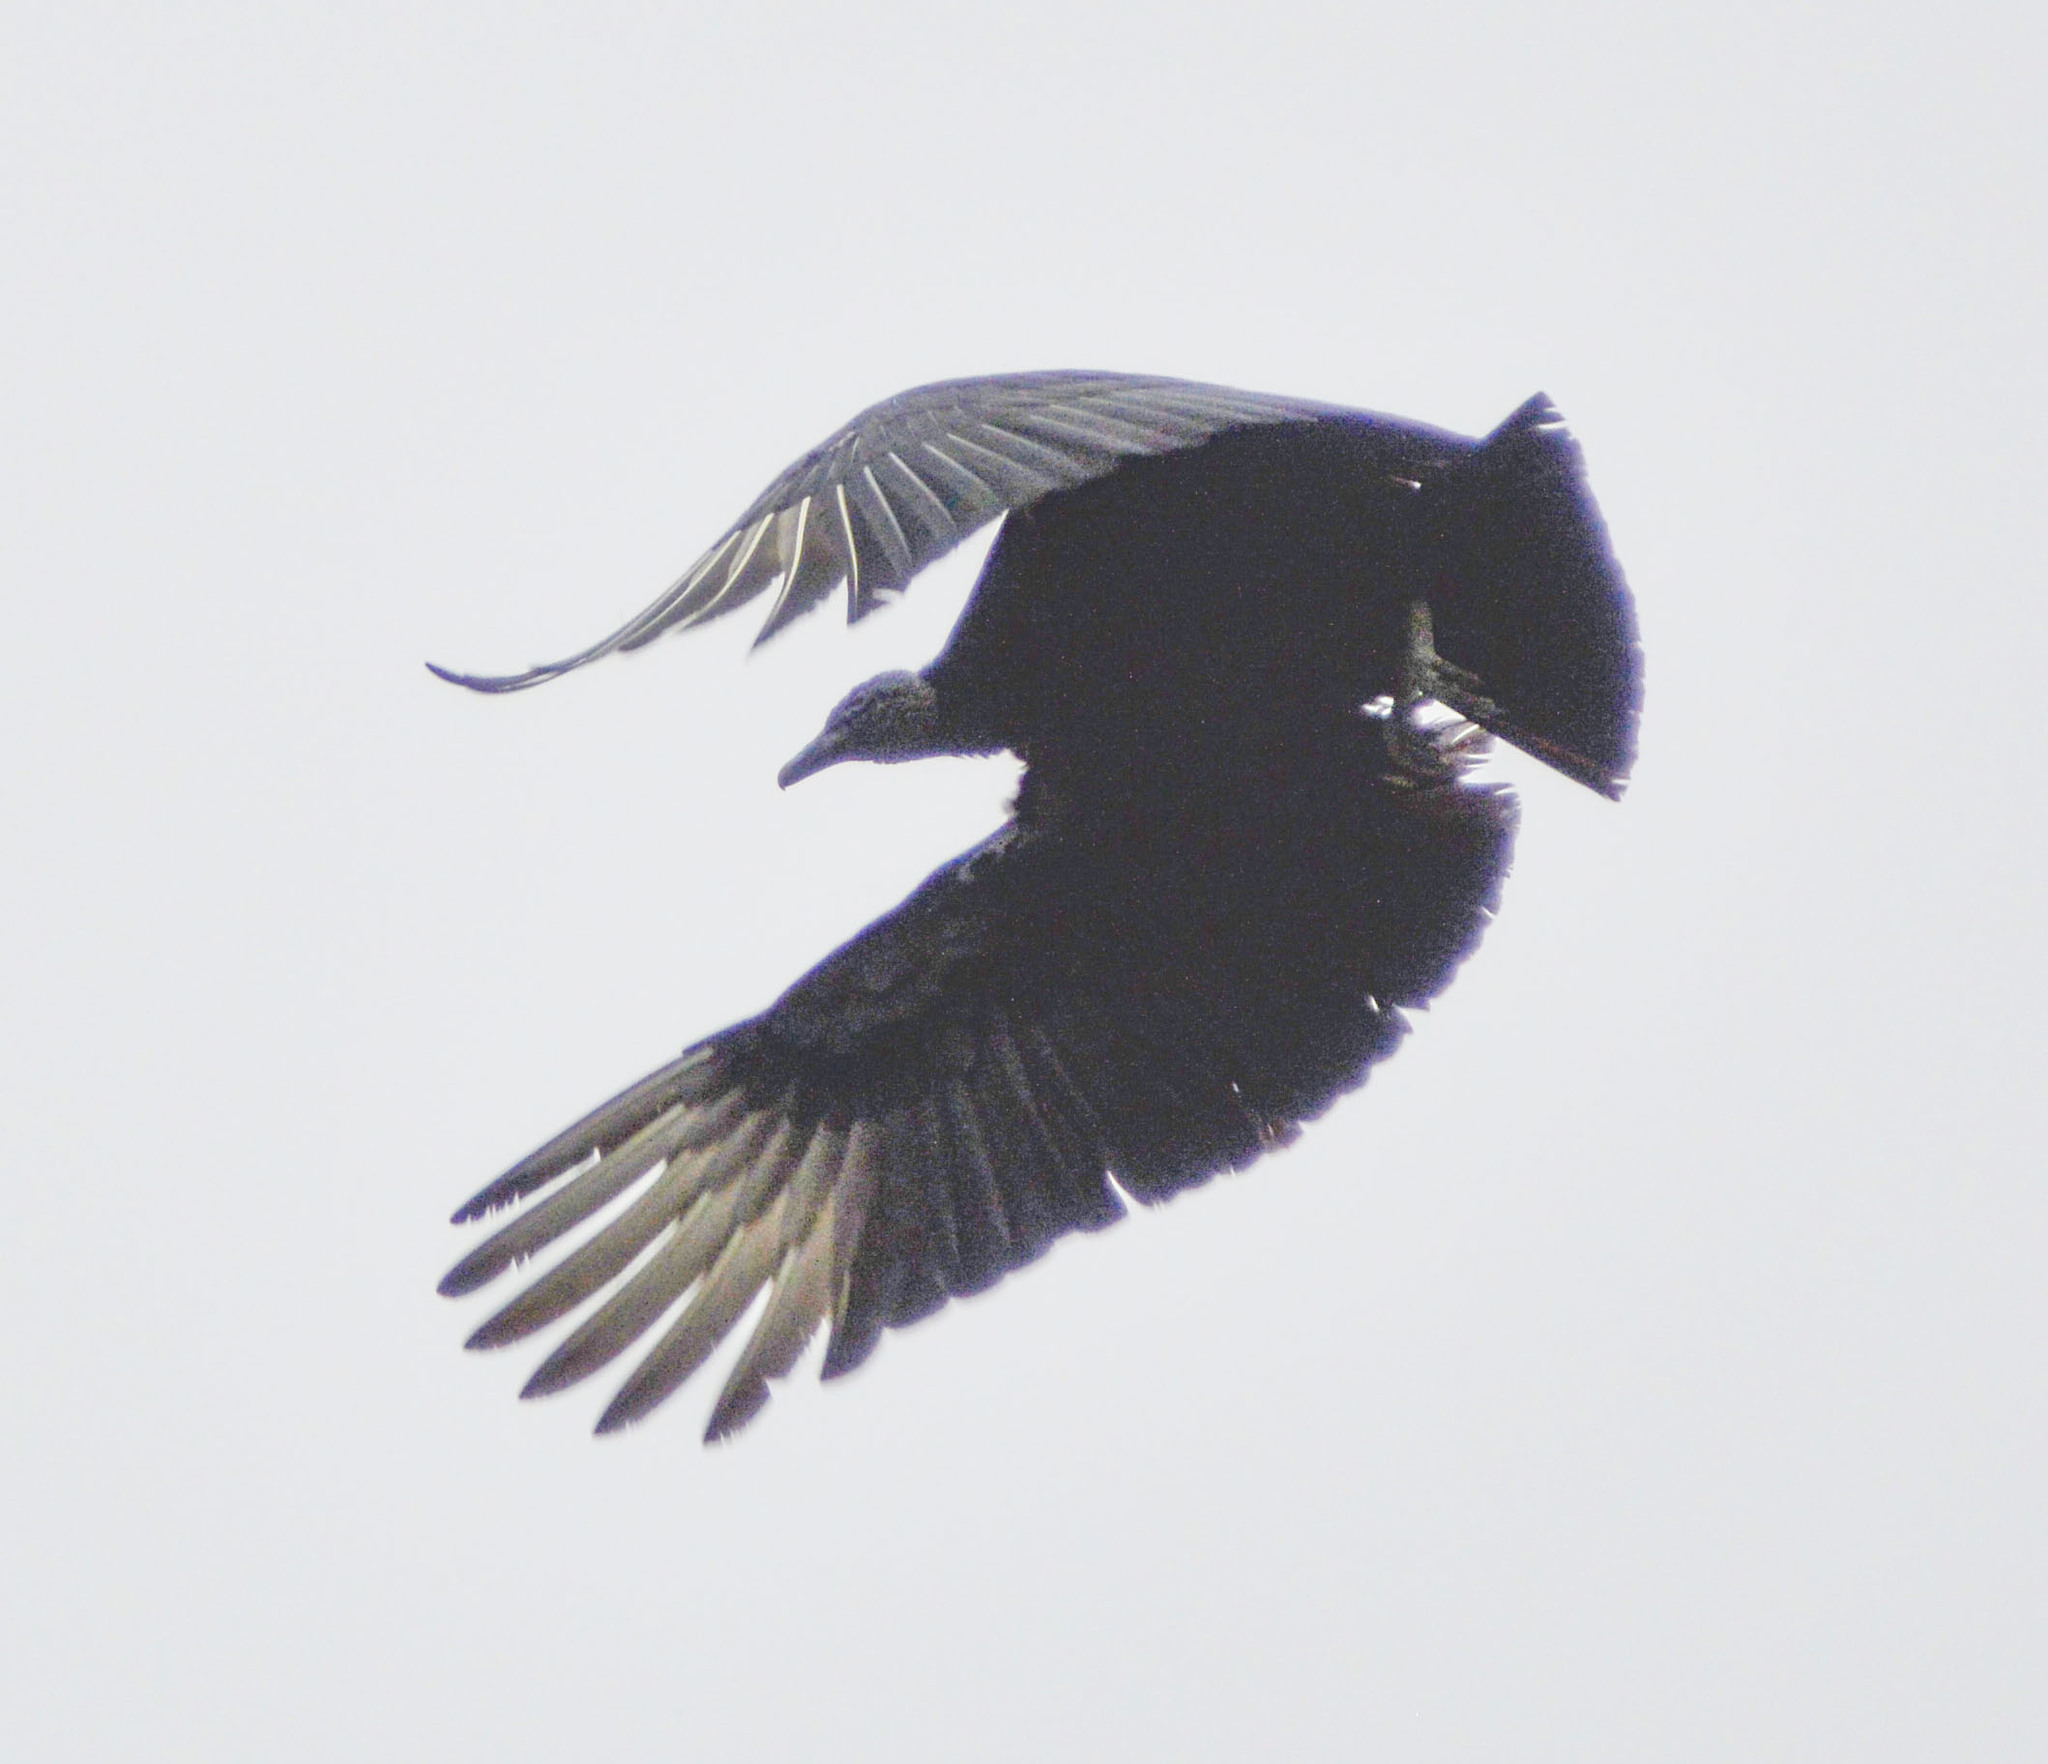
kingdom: Animalia
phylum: Chordata
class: Aves
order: Accipitriformes
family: Cathartidae
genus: Coragyps
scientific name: Coragyps atratus
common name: Black vulture
